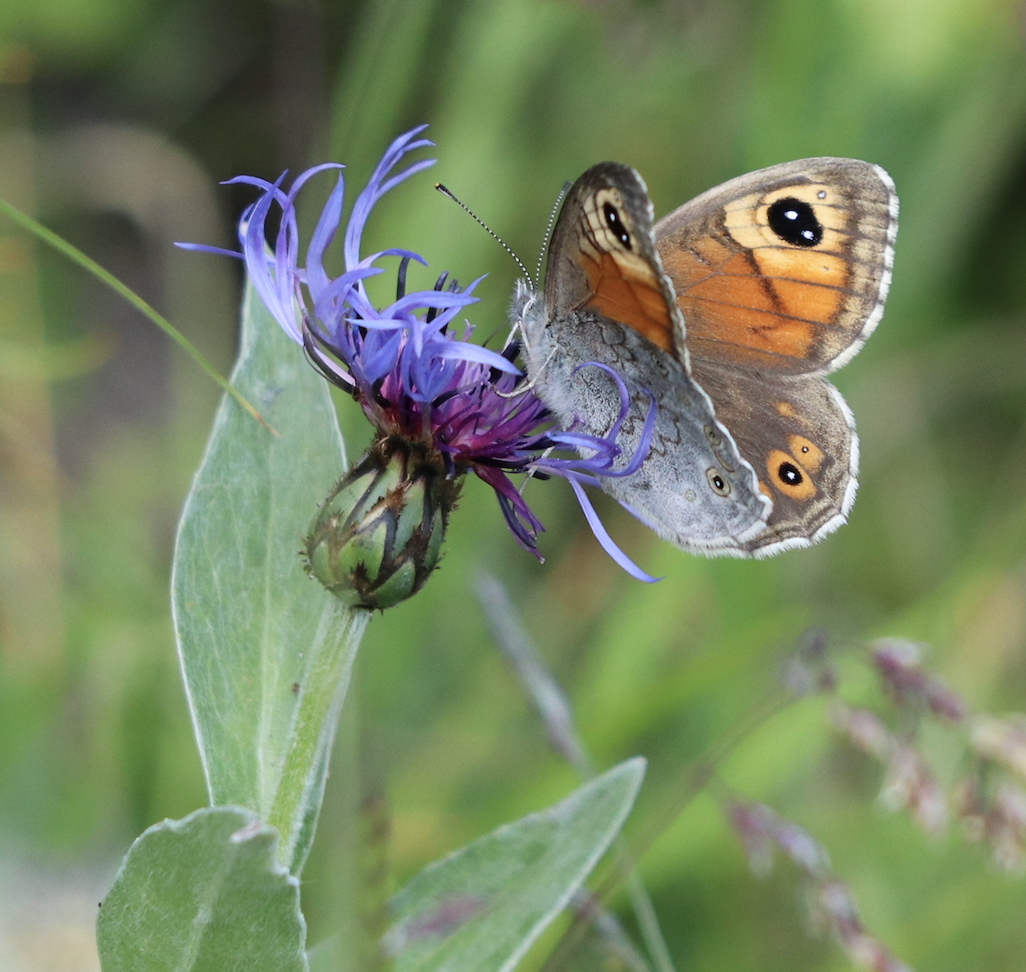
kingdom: Animalia
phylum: Arthropoda
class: Insecta
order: Lepidoptera
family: Nymphalidae
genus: Pararge
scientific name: Pararge Lasiommata maera
